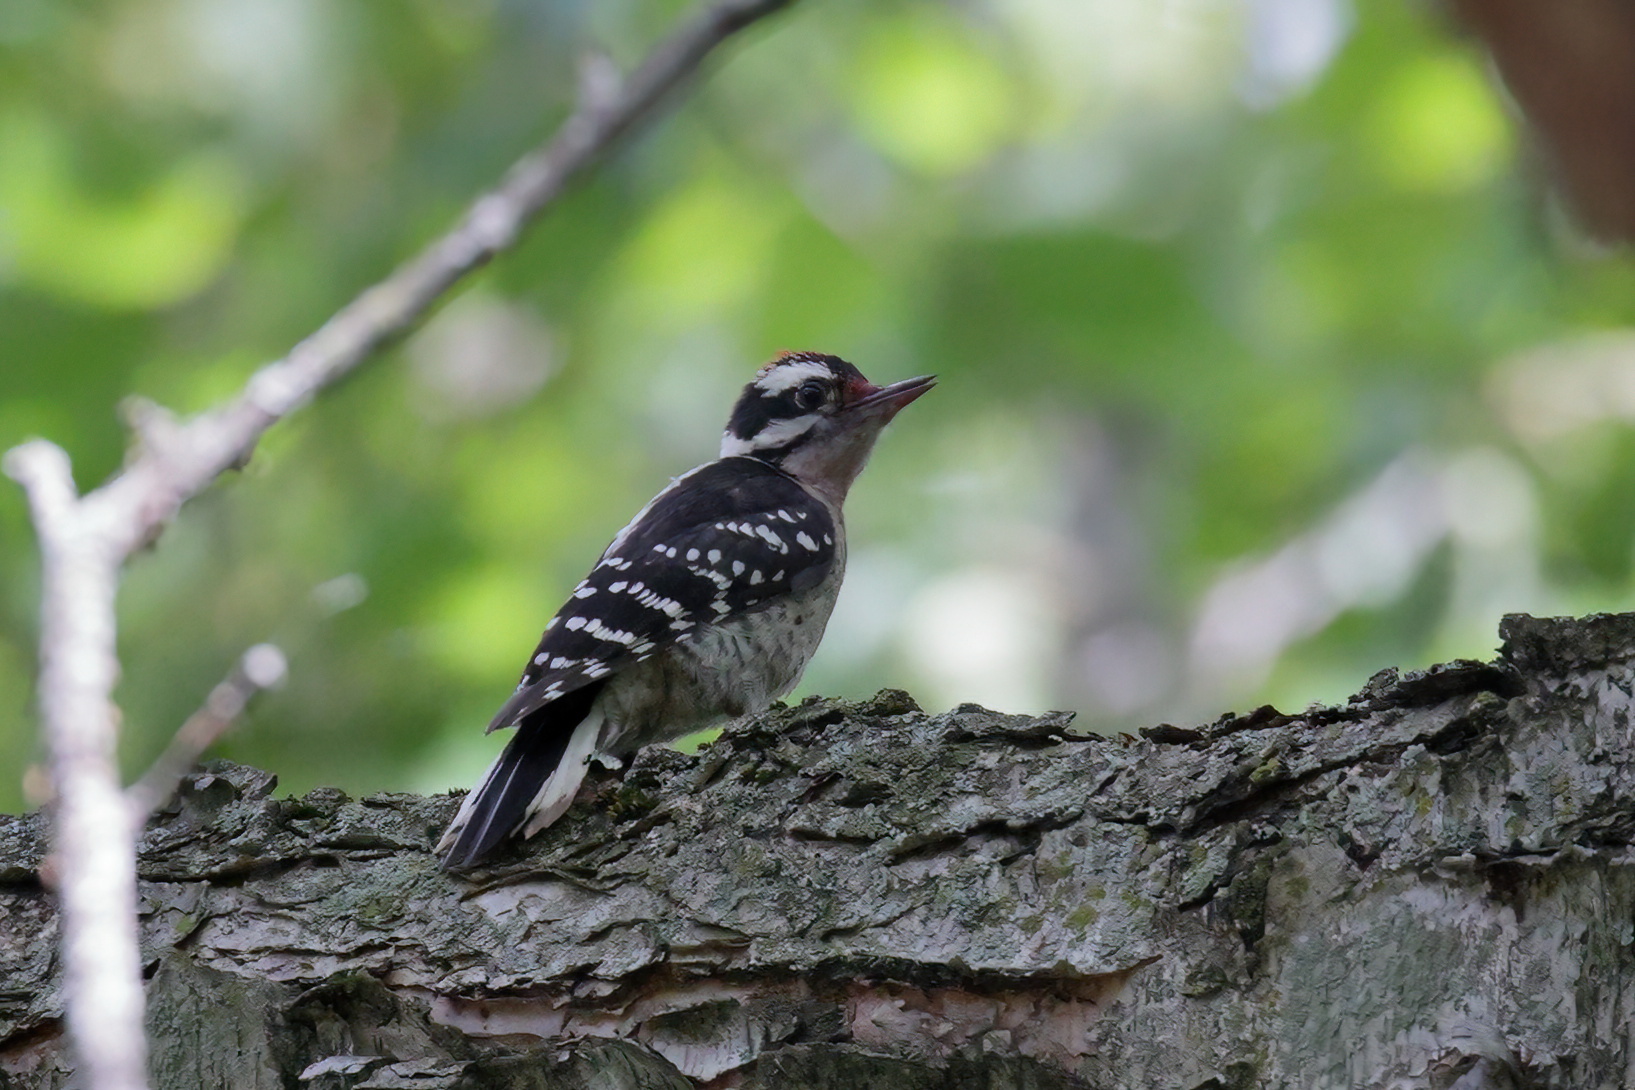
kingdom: Animalia
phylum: Chordata
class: Aves
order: Piciformes
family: Picidae
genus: Dryobates
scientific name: Dryobates pubescens
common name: Downy woodpecker
